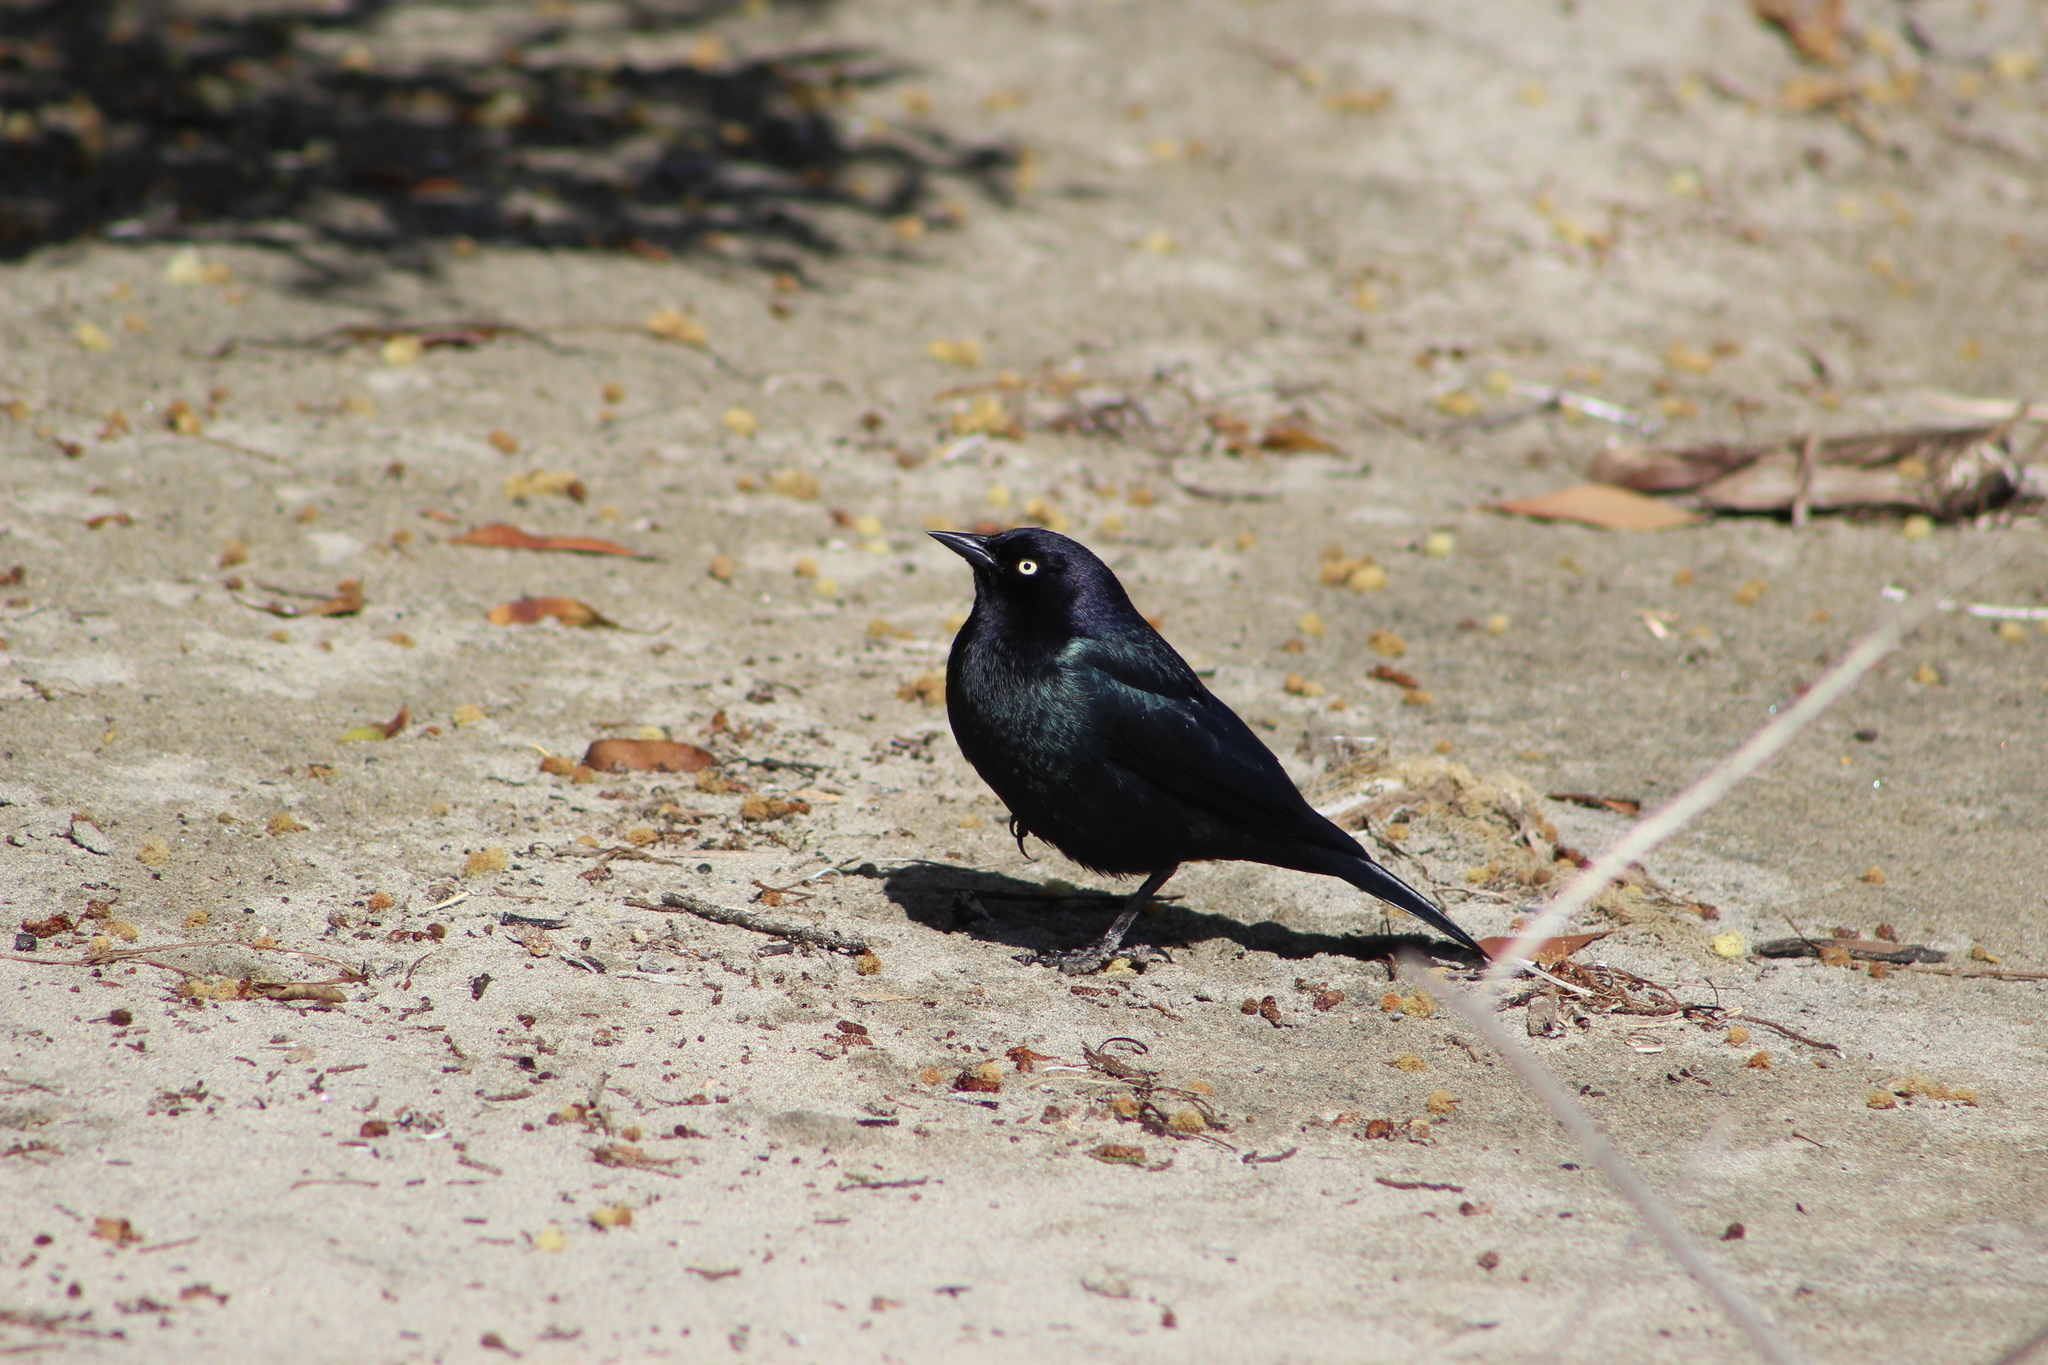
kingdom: Animalia
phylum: Chordata
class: Aves
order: Passeriformes
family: Icteridae
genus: Euphagus
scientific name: Euphagus cyanocephalus
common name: Brewer's blackbird
